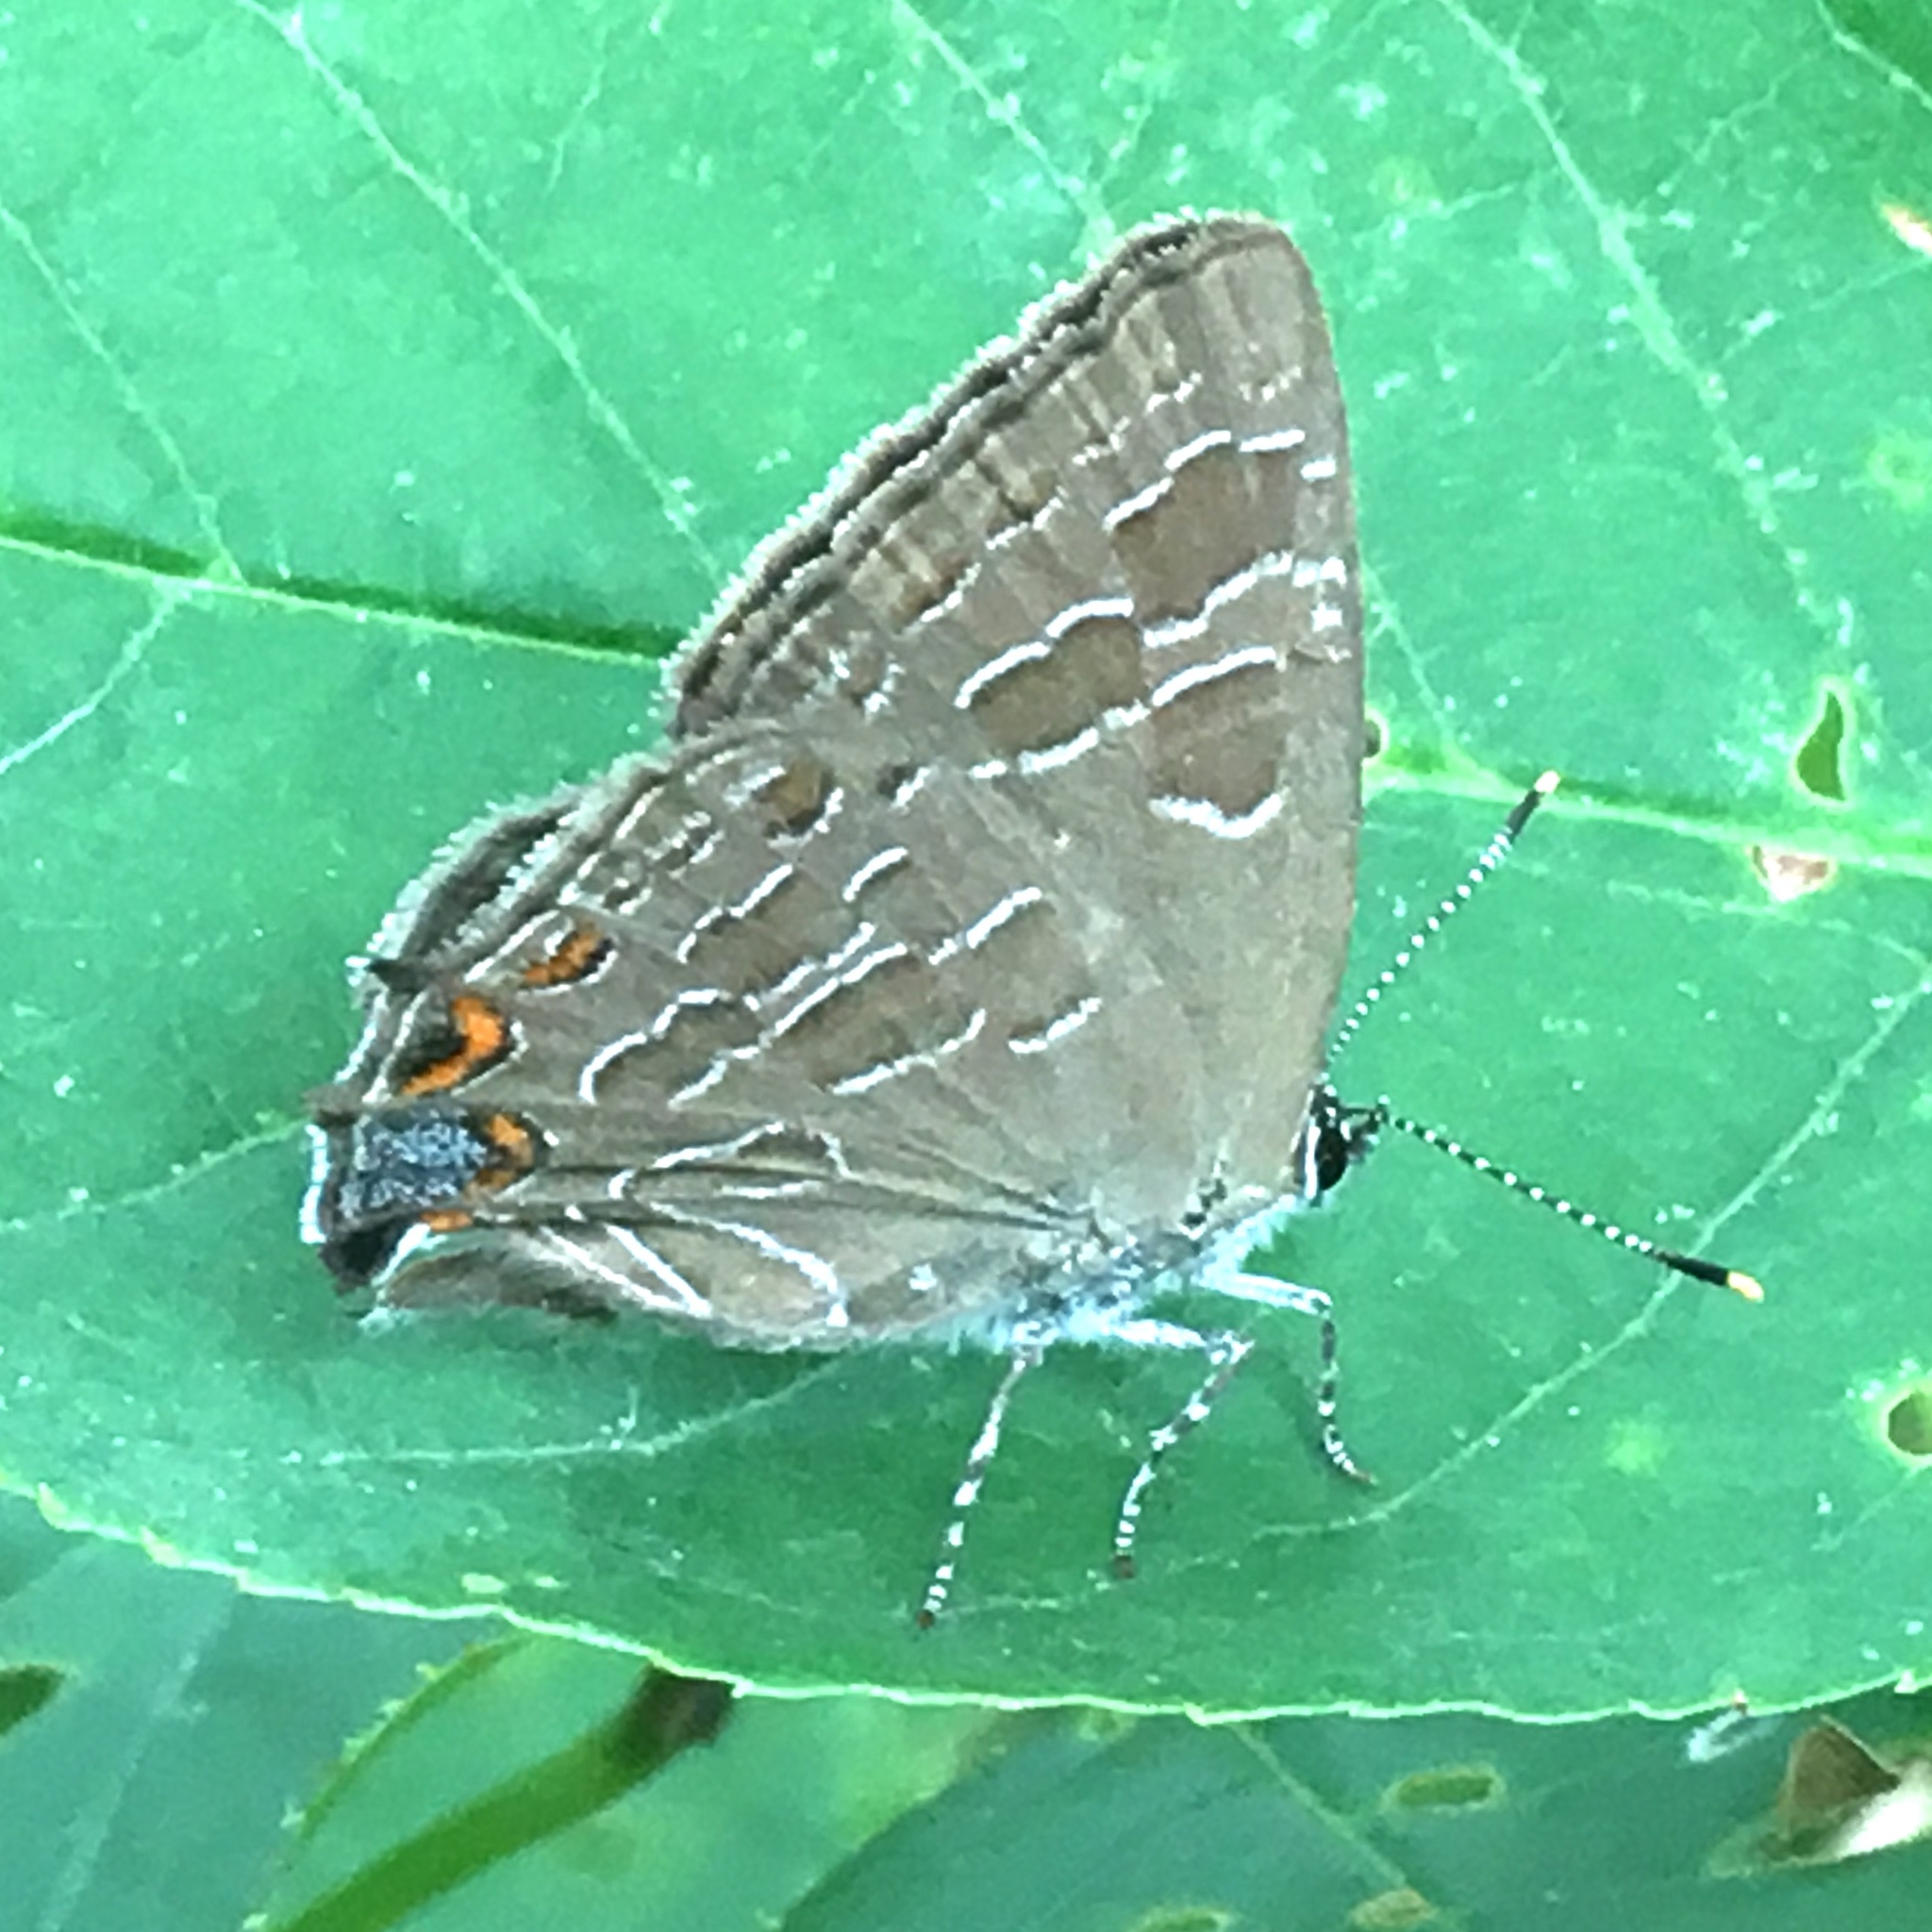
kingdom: Animalia
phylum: Arthropoda
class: Insecta
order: Lepidoptera
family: Lycaenidae
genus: Satyrium
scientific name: Satyrium liparops
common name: Striped hairstreak
